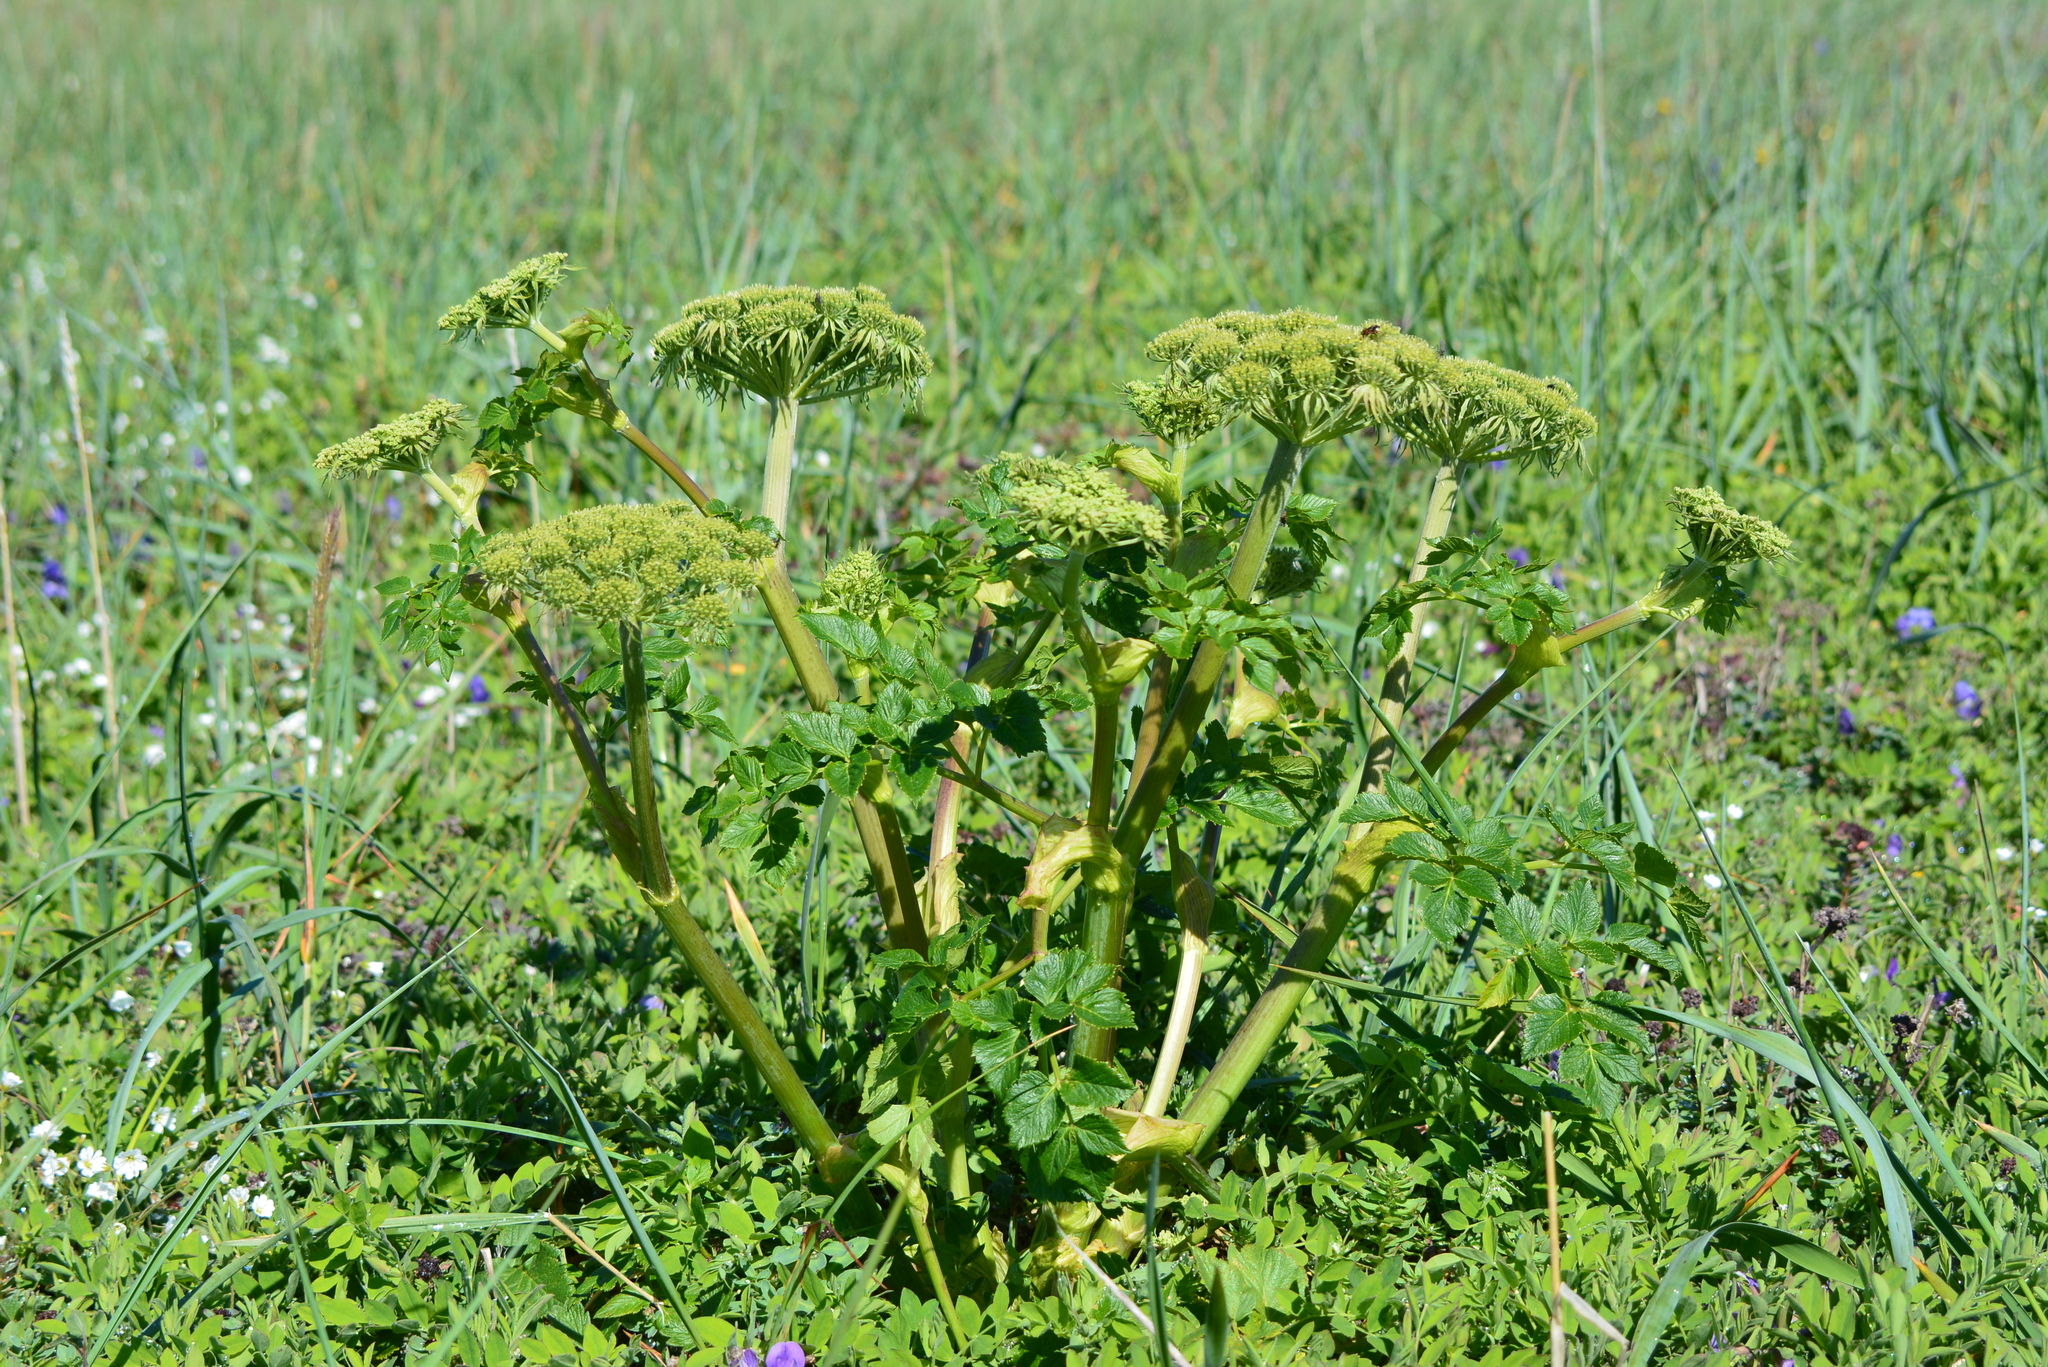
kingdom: Plantae
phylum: Tracheophyta
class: Magnoliopsida
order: Apiales
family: Apiaceae
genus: Angelica
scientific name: Angelica gmelinii
